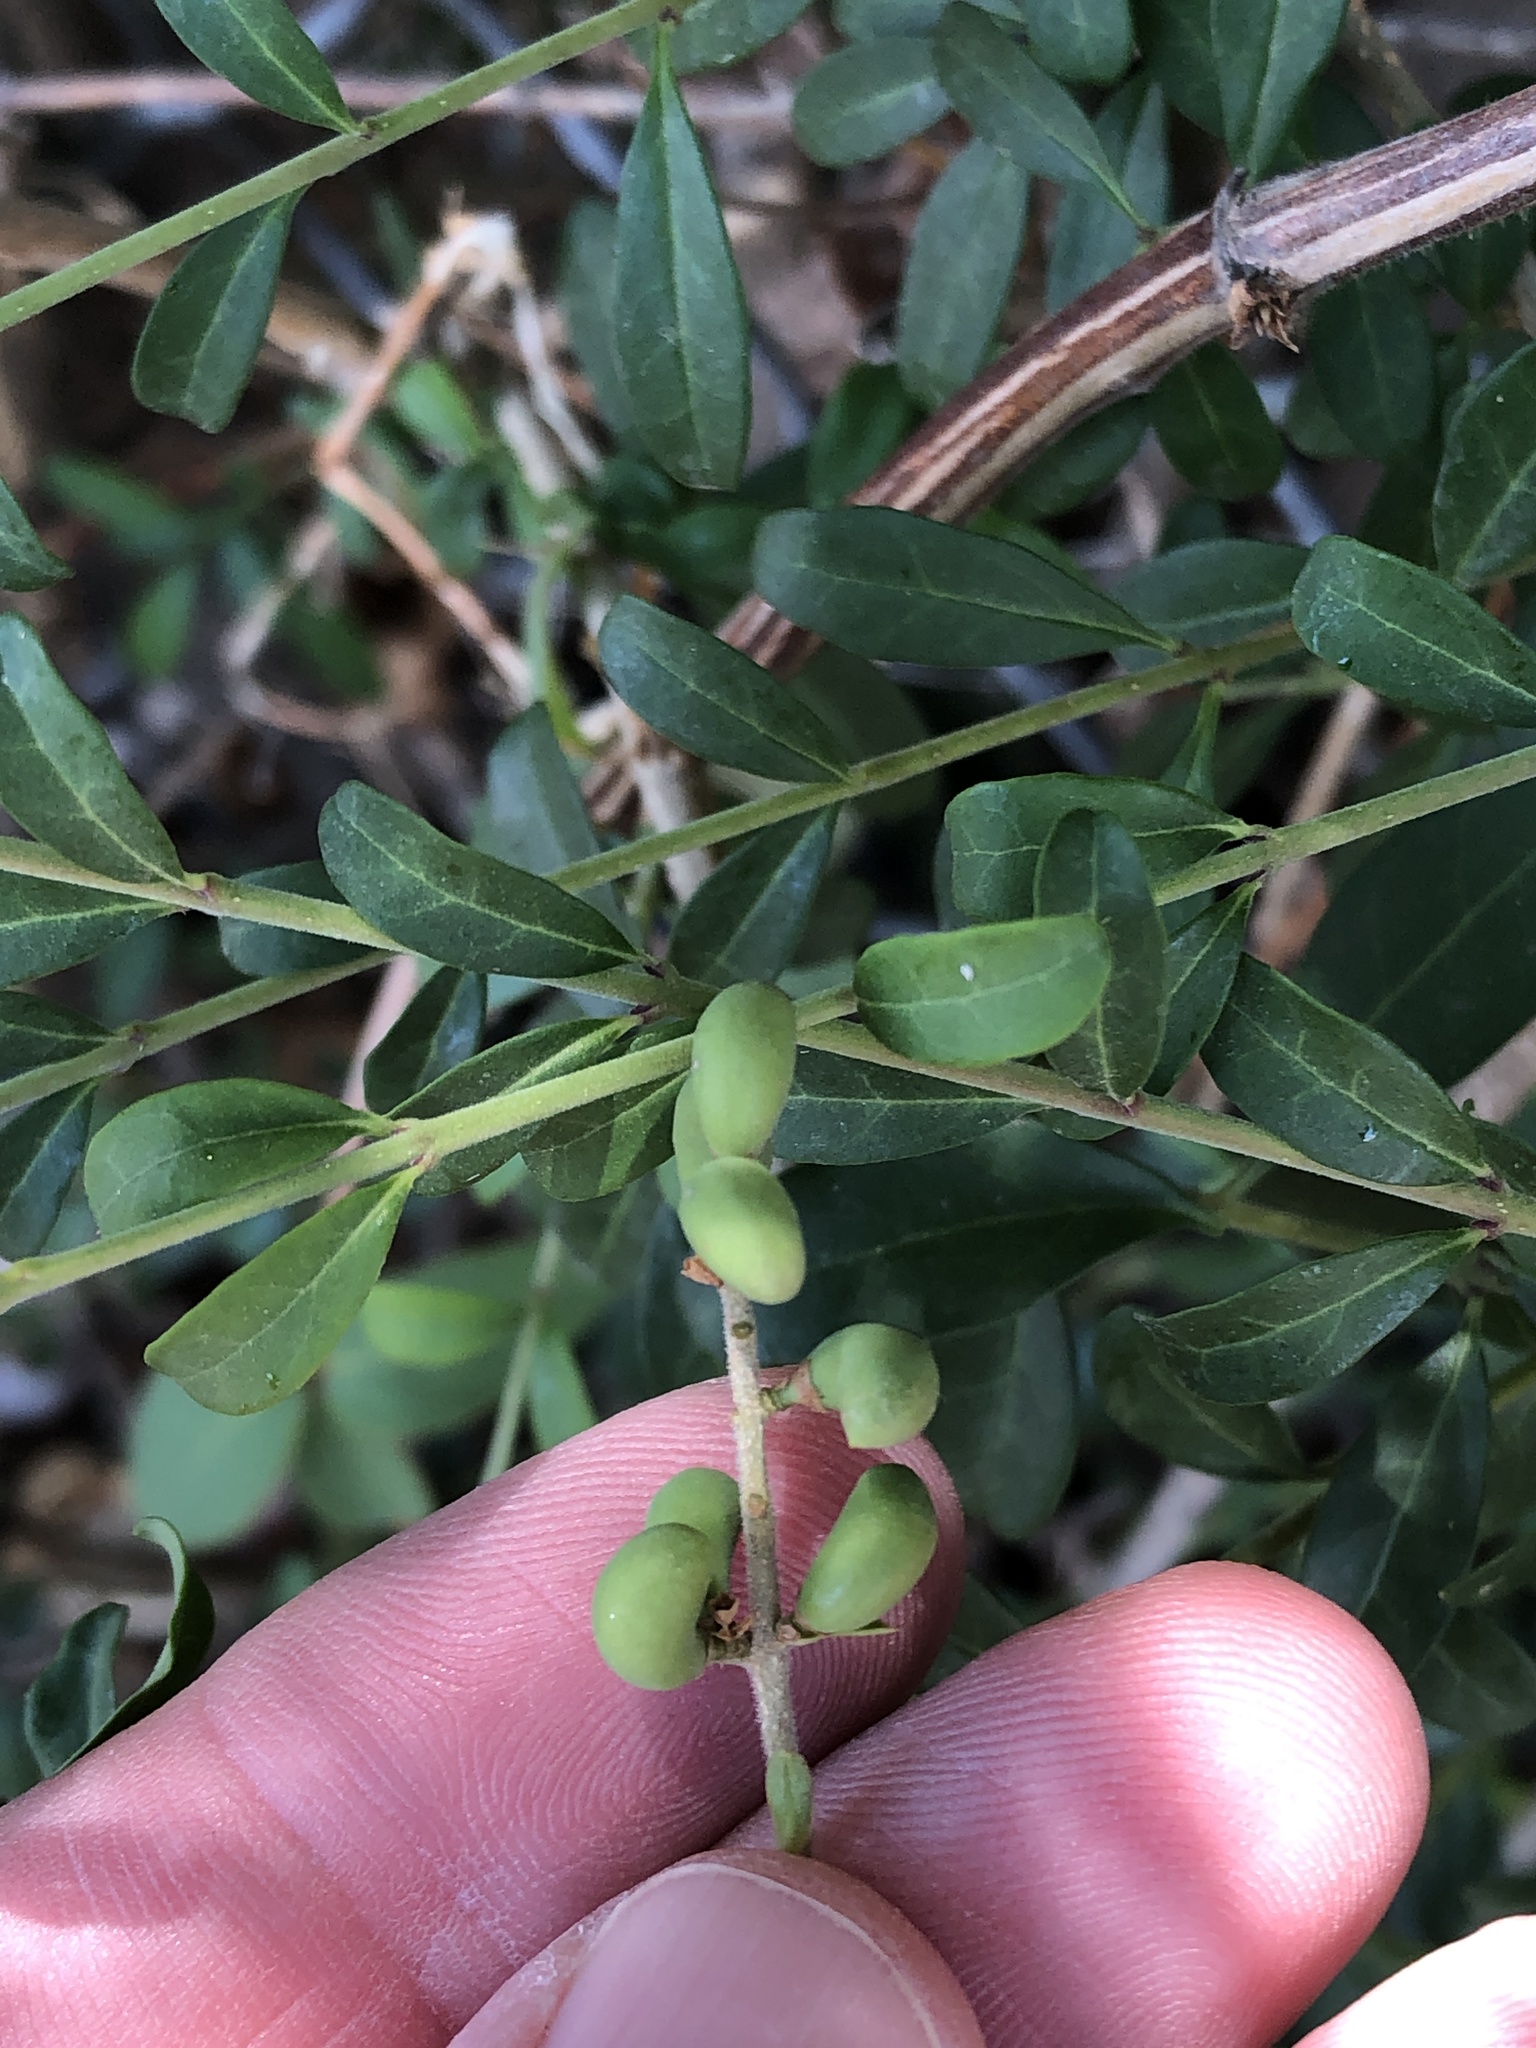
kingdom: Plantae
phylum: Tracheophyta
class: Magnoliopsida
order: Lamiales
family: Oleaceae
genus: Ligustrum
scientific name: Ligustrum quihoui
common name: Waxyleaf privet
